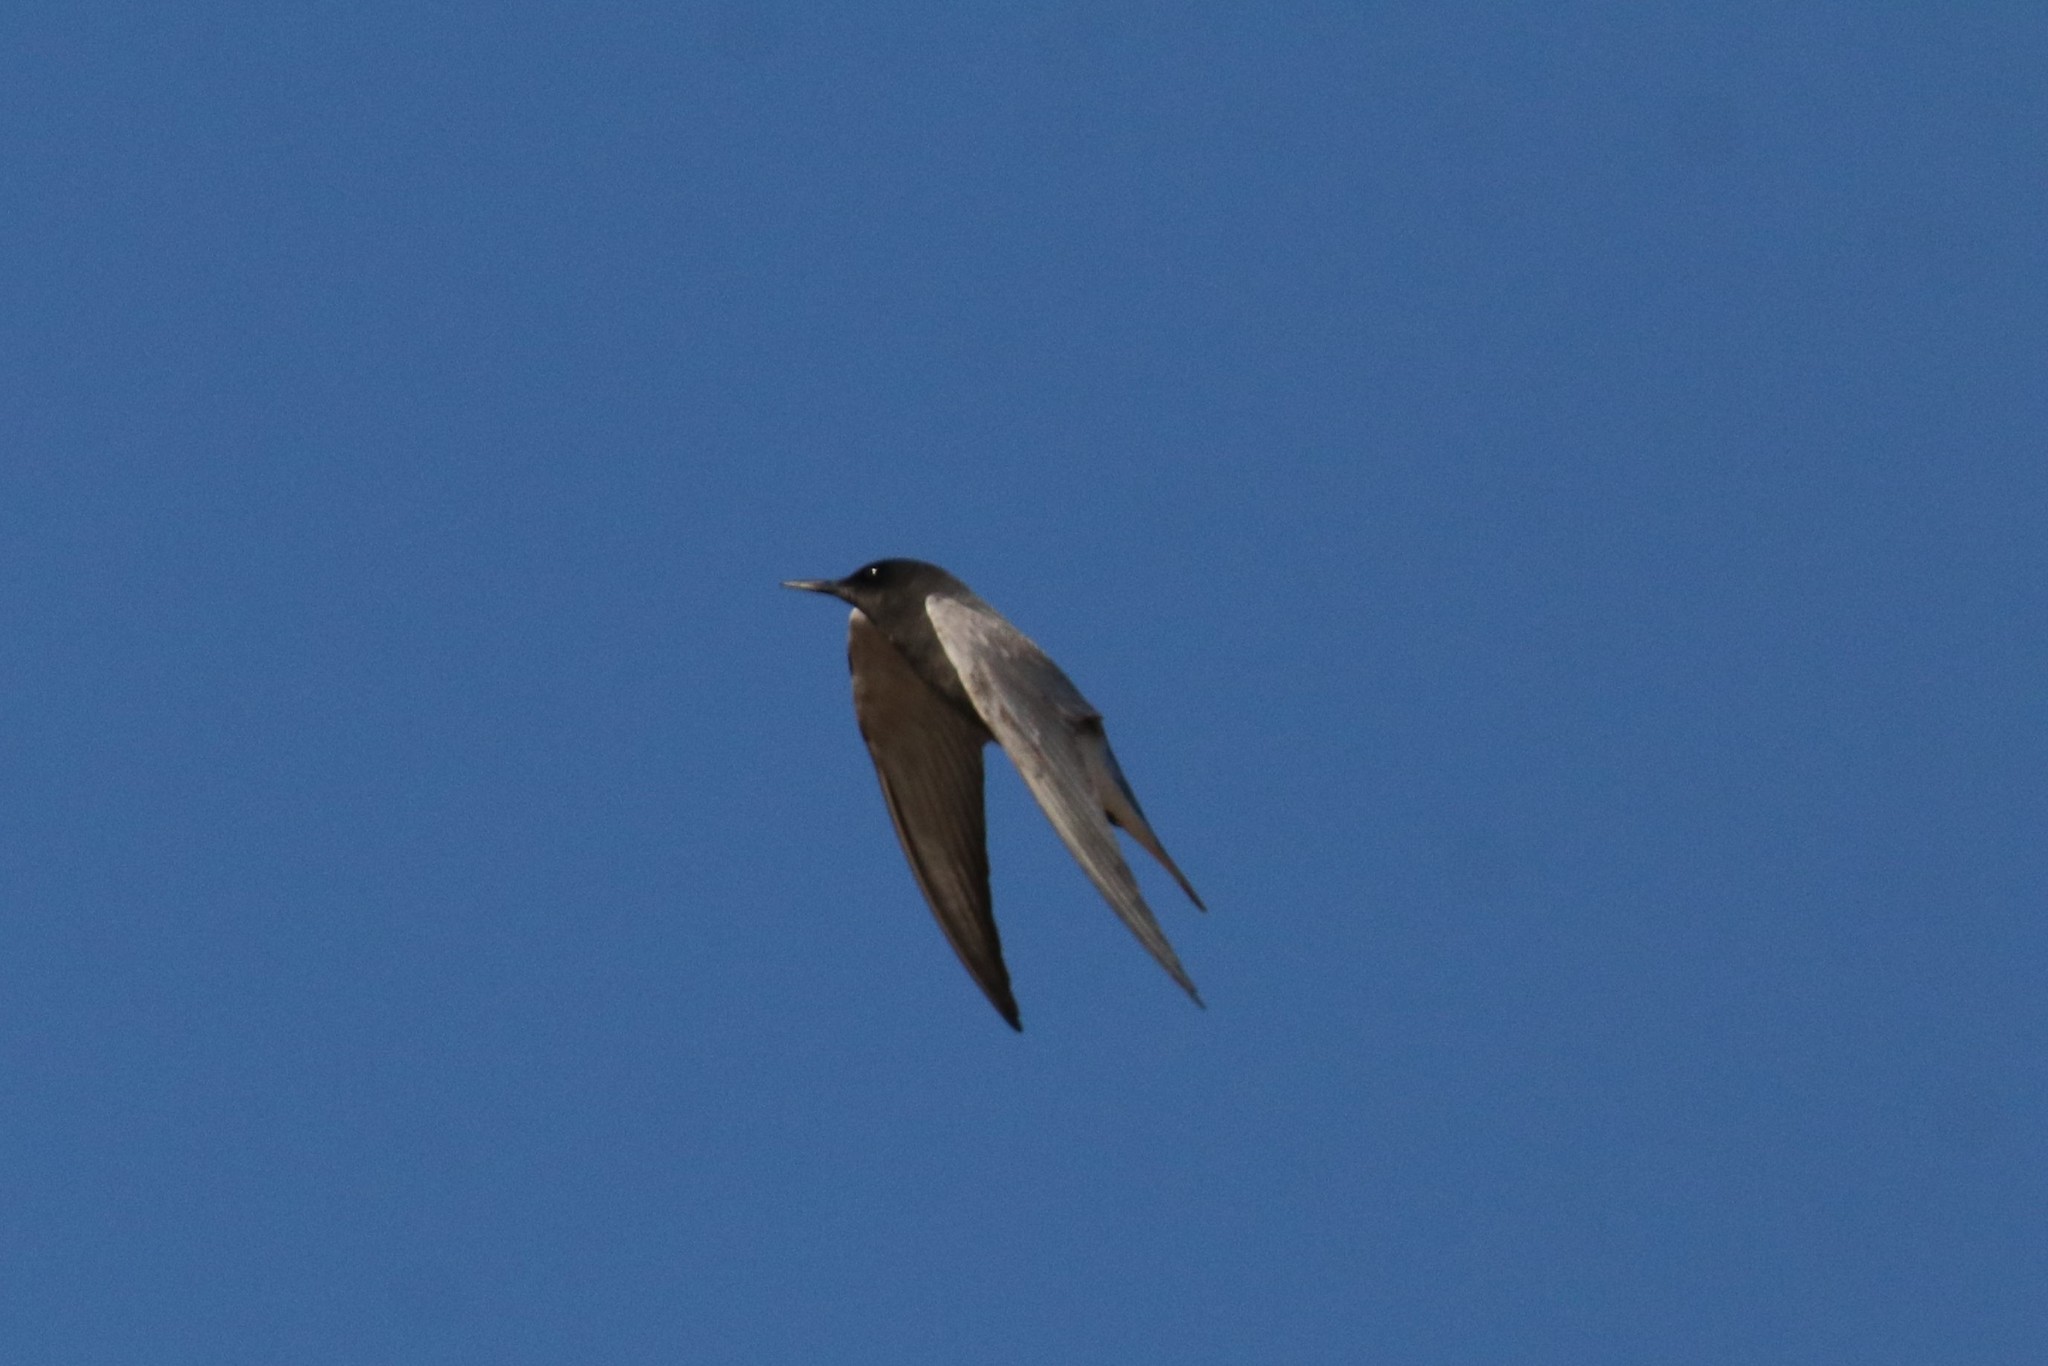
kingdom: Animalia
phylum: Chordata
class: Aves
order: Charadriiformes
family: Laridae
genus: Chlidonias
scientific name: Chlidonias niger
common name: Black tern
